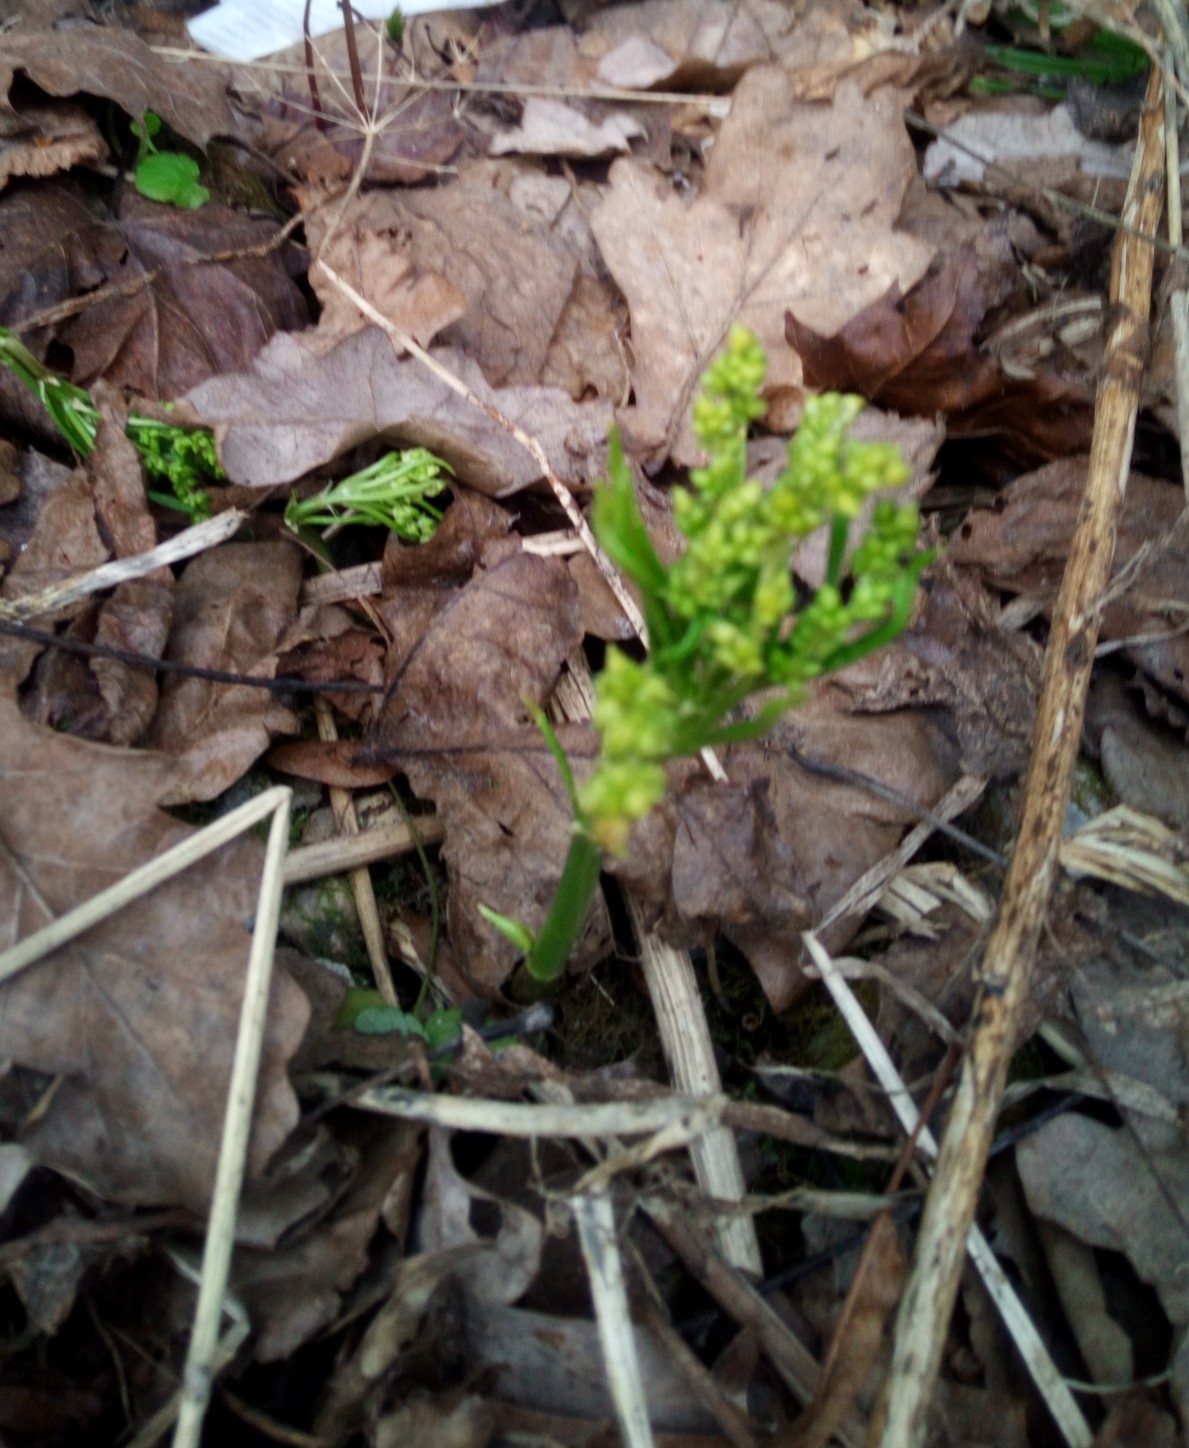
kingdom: Plantae
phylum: Tracheophyta
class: Magnoliopsida
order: Malpighiales
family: Euphorbiaceae
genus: Mercurialis
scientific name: Mercurialis perennis
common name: Dog mercury
